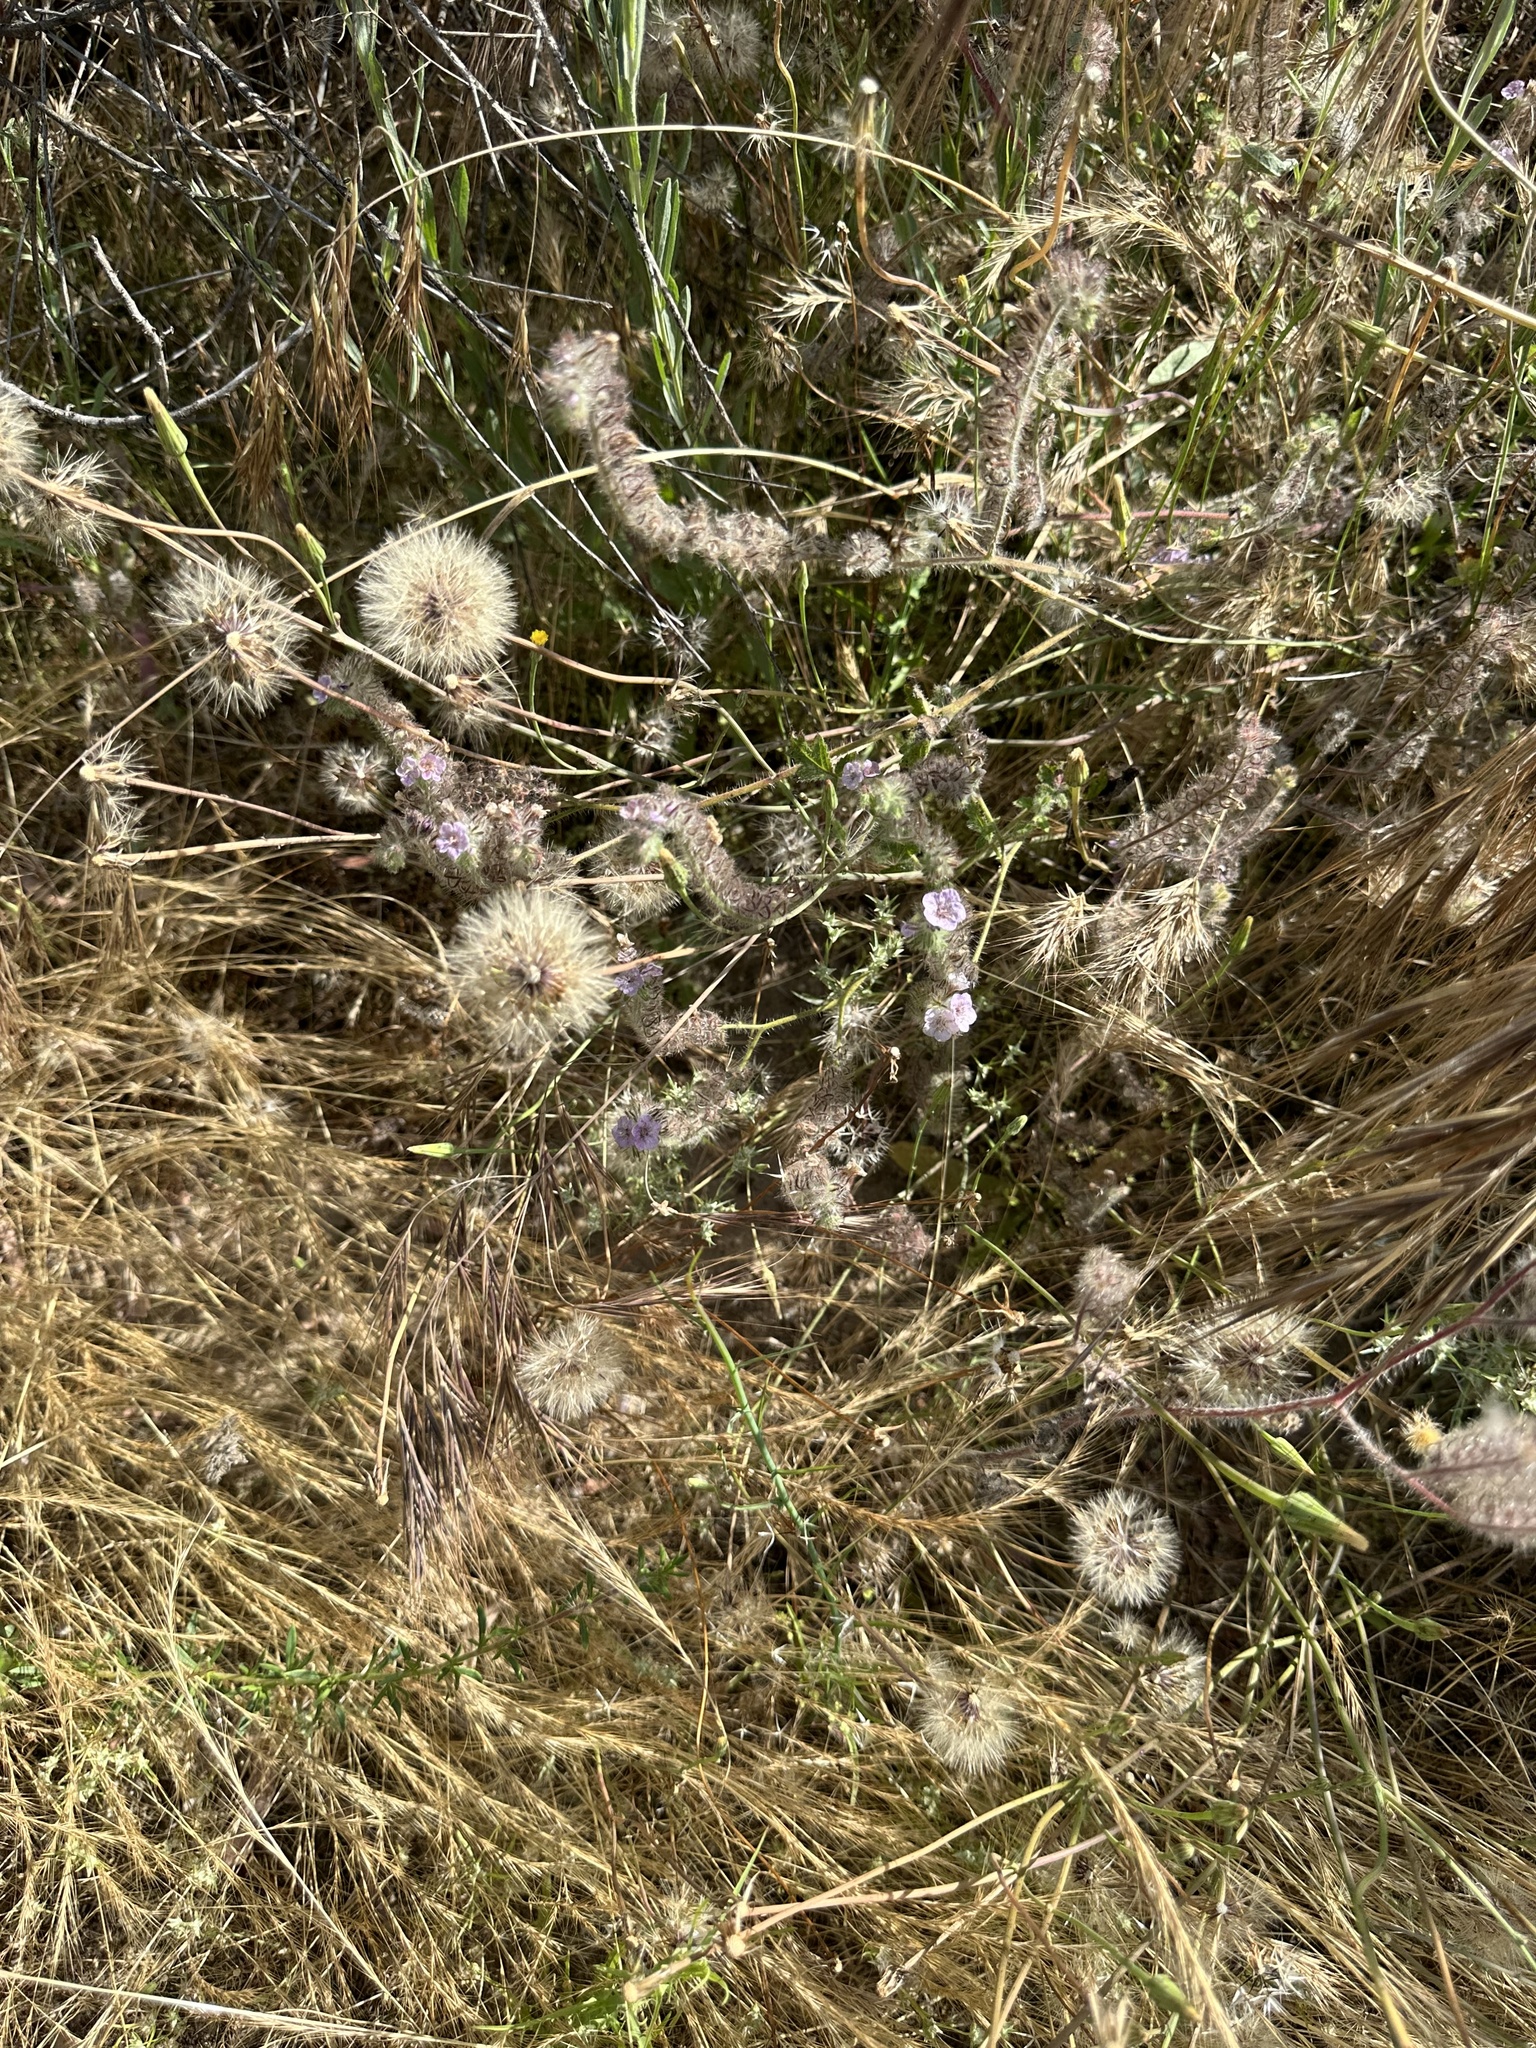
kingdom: Plantae
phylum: Tracheophyta
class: Magnoliopsida
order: Boraginales
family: Hydrophyllaceae
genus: Phacelia
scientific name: Phacelia cicutaria
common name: Caterpillar phacelia
